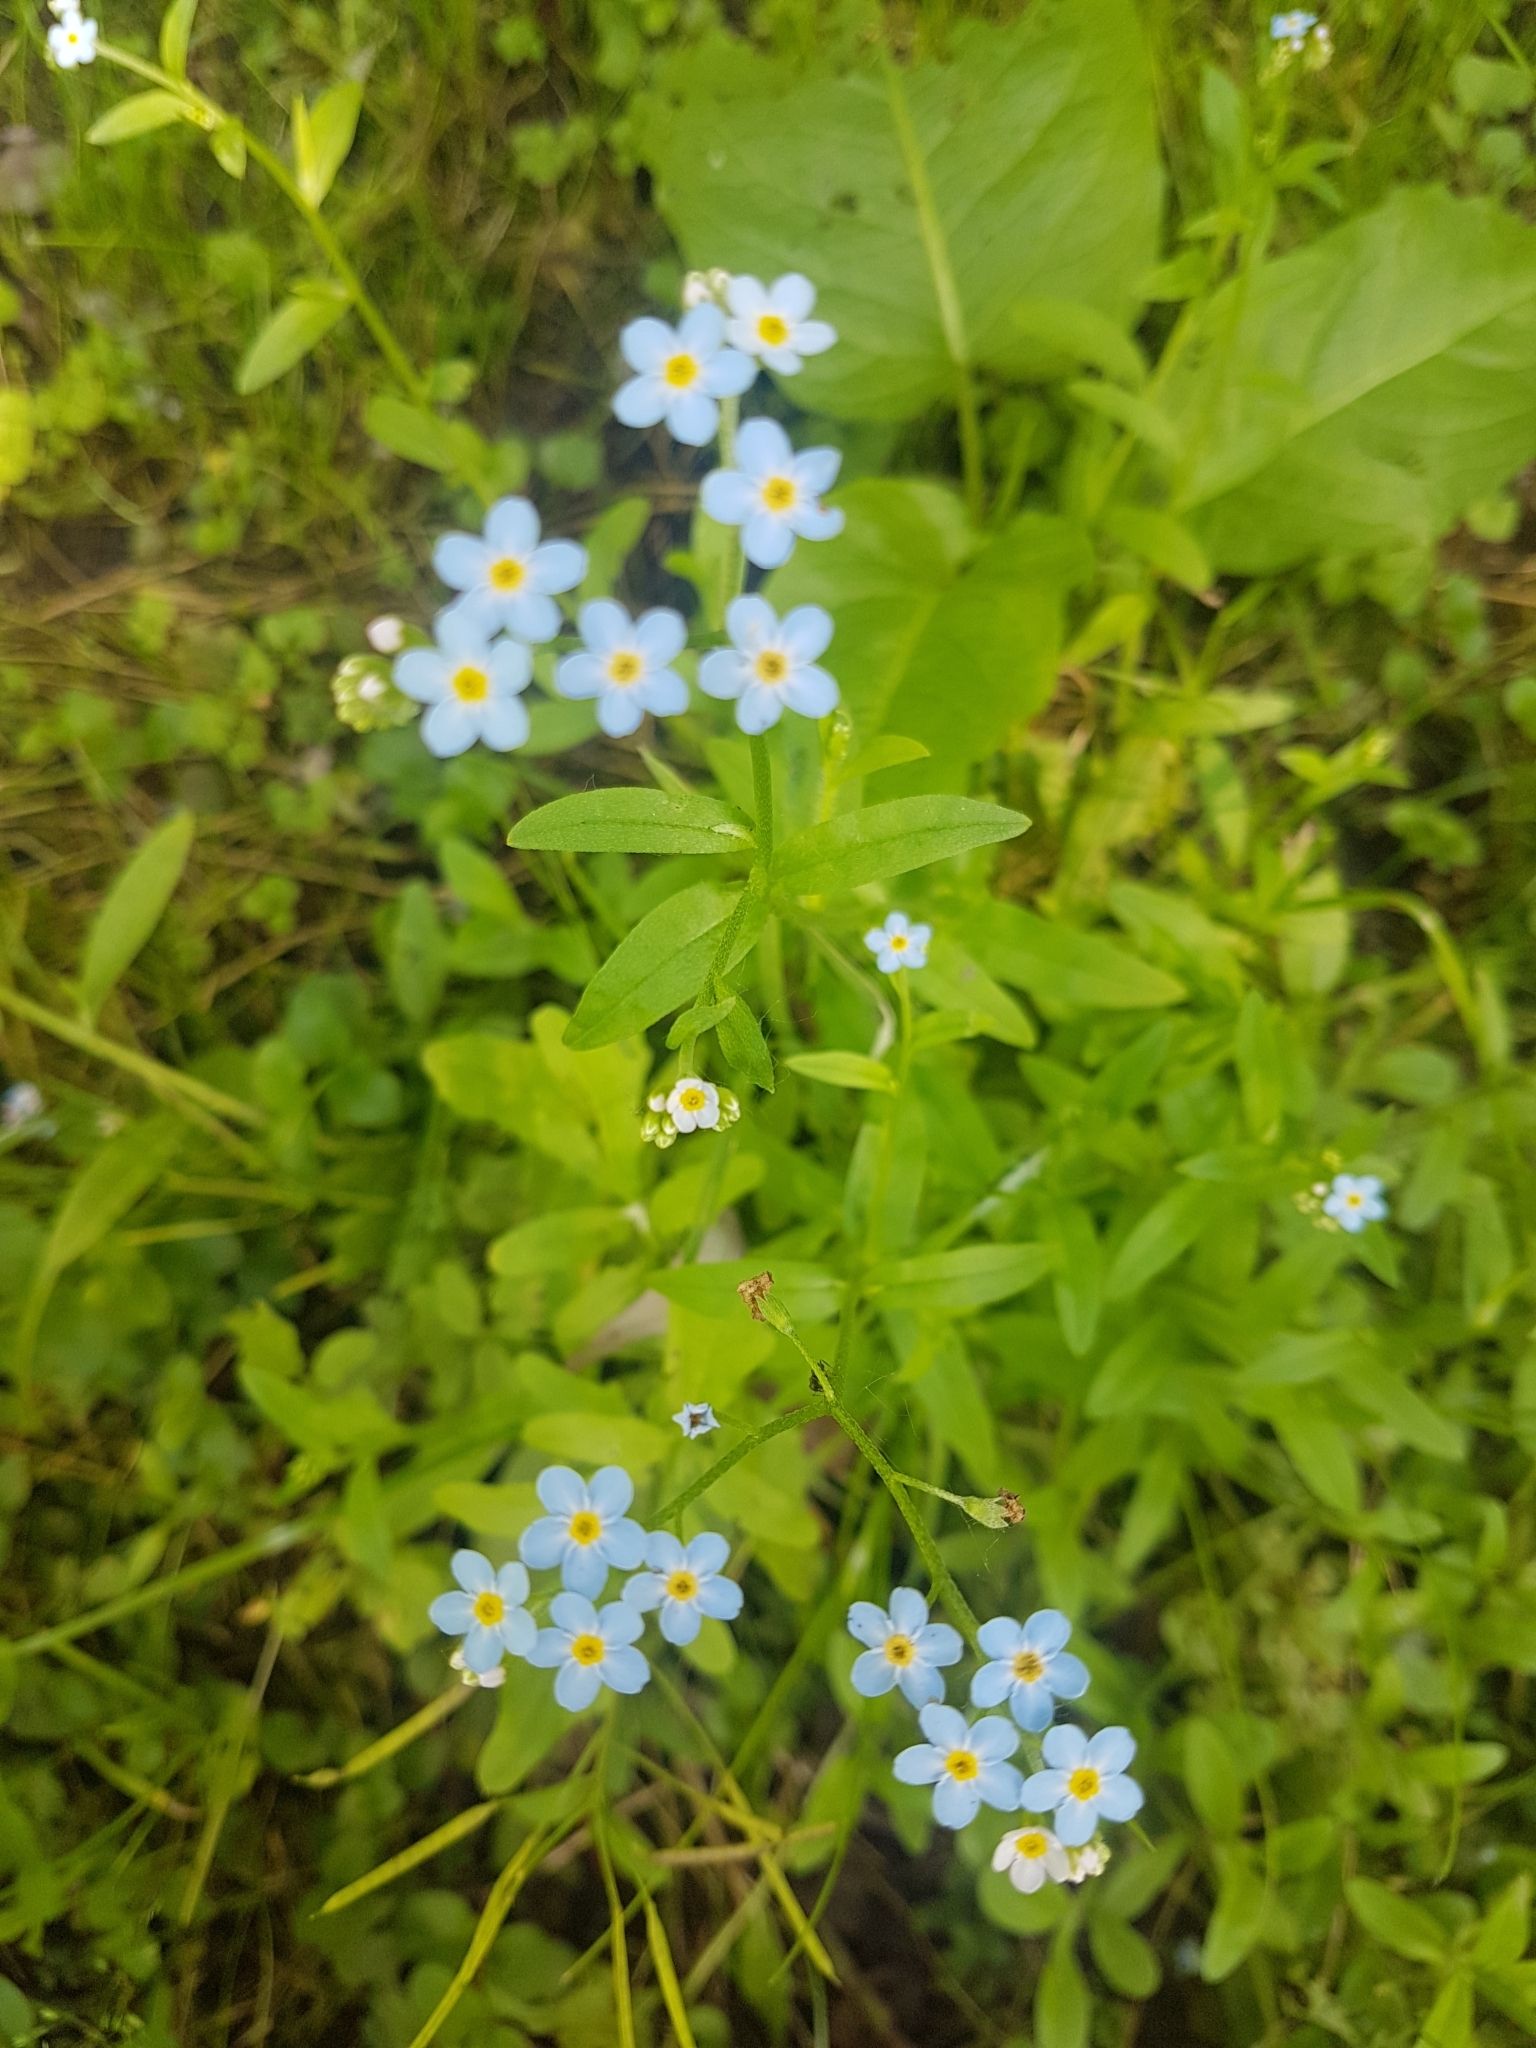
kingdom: Plantae
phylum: Tracheophyta
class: Magnoliopsida
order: Boraginales
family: Boraginaceae
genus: Myosotis
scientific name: Myosotis scorpioides
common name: Water forget-me-not
